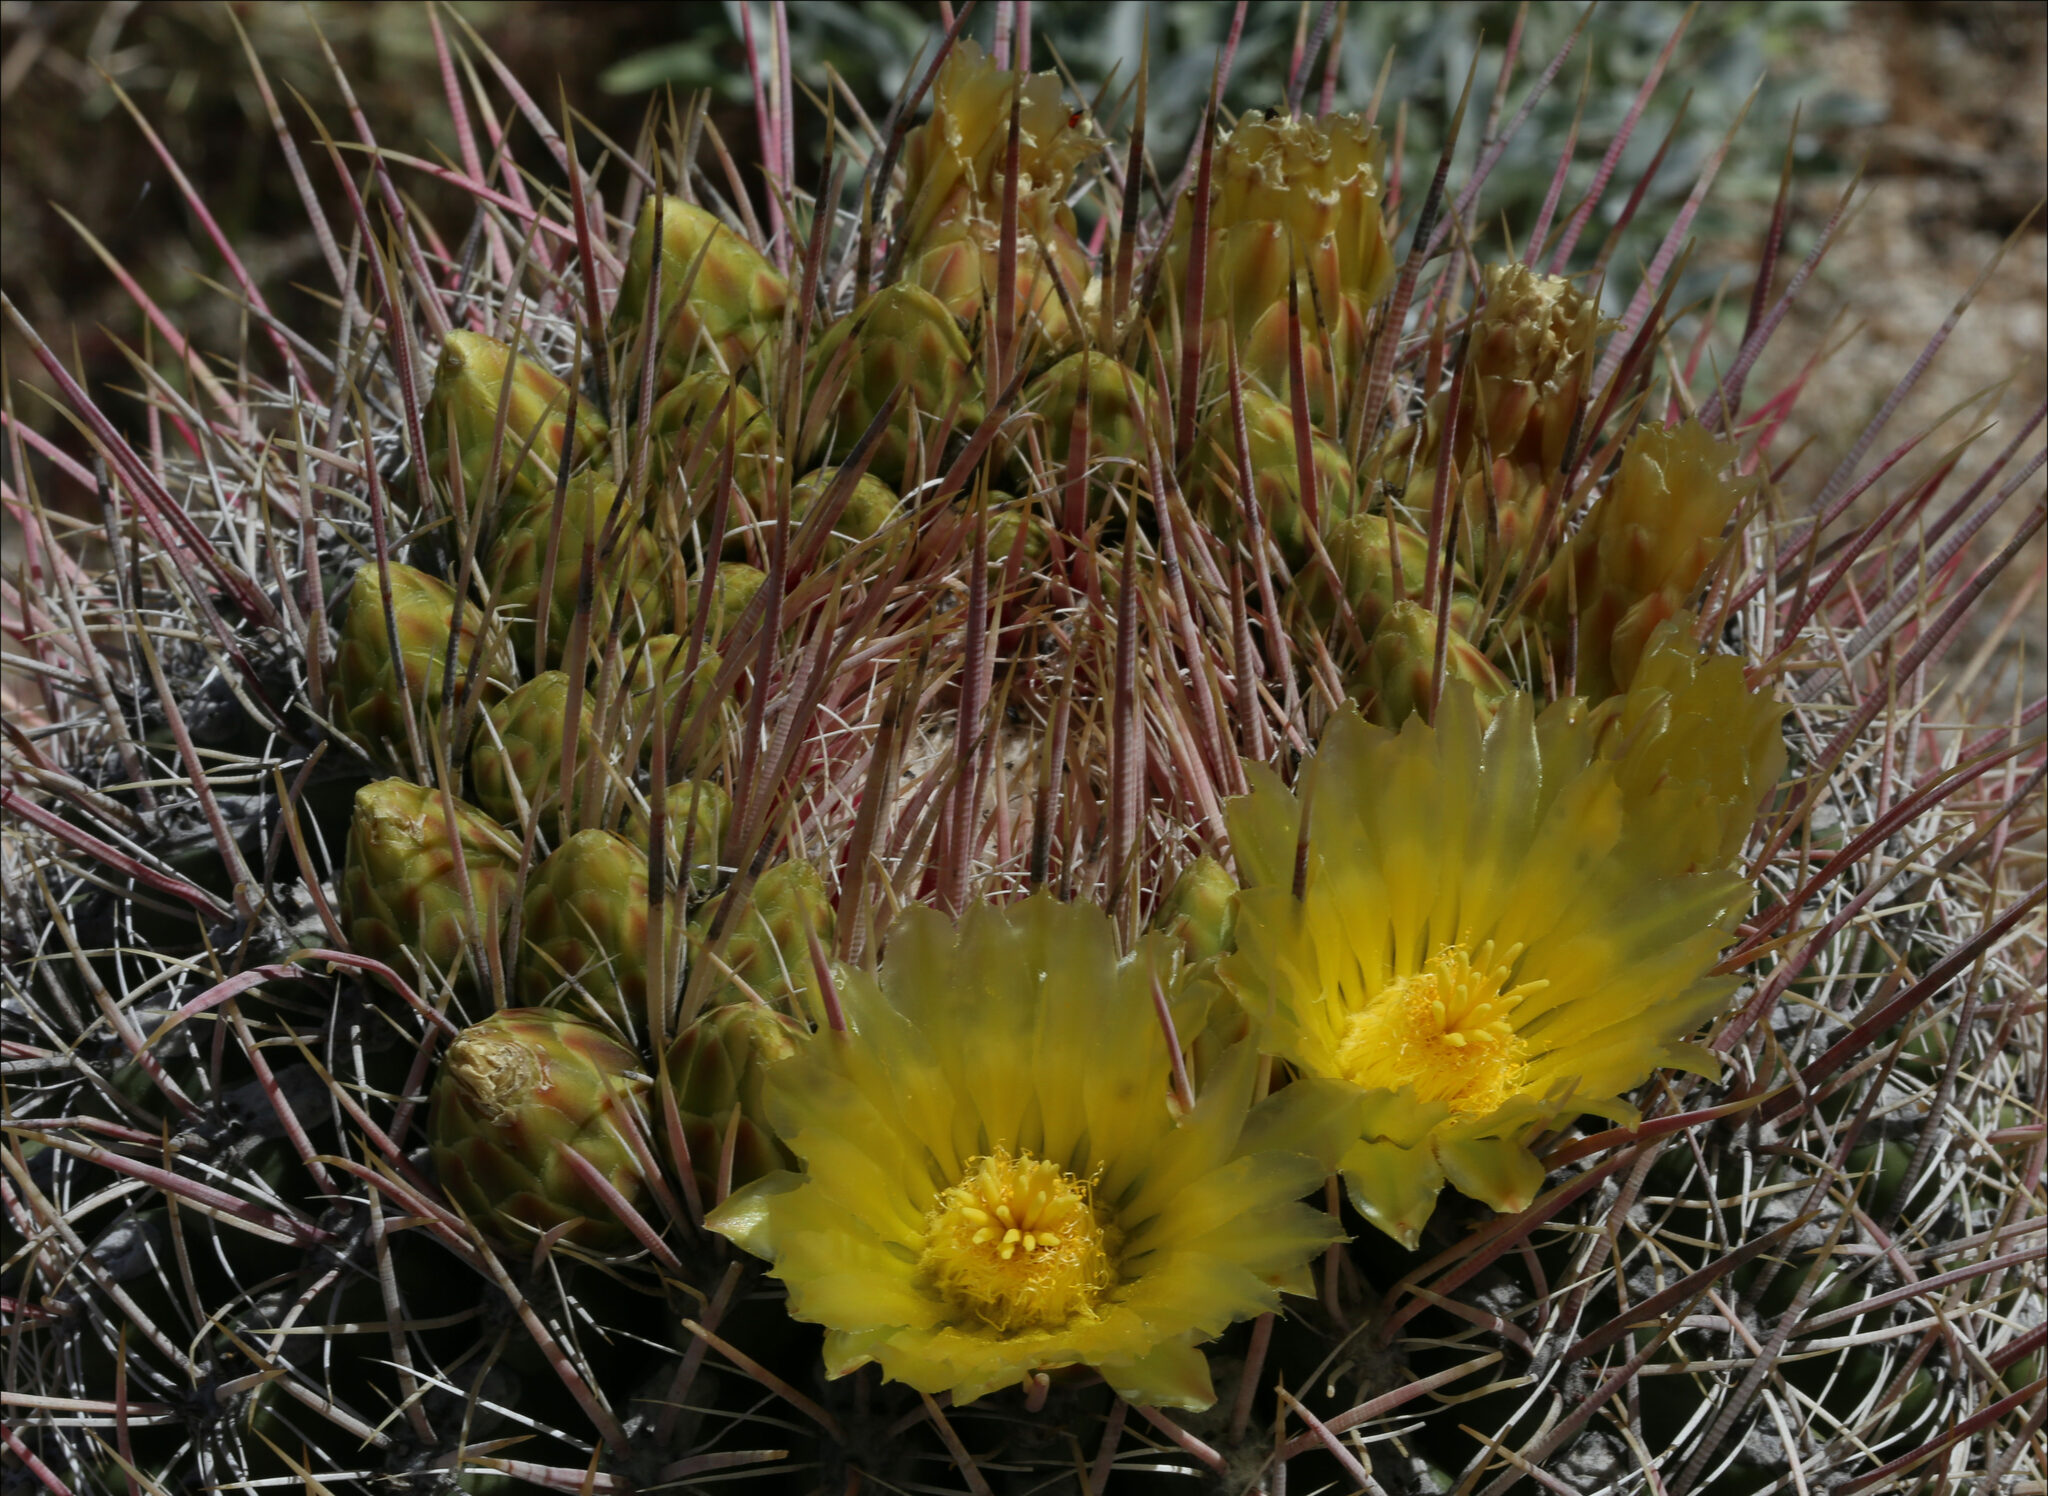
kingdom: Plantae
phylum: Tracheophyta
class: Magnoliopsida
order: Caryophyllales
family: Cactaceae
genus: Ferocactus
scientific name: Ferocactus cylindraceus
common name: California barrel cactus
